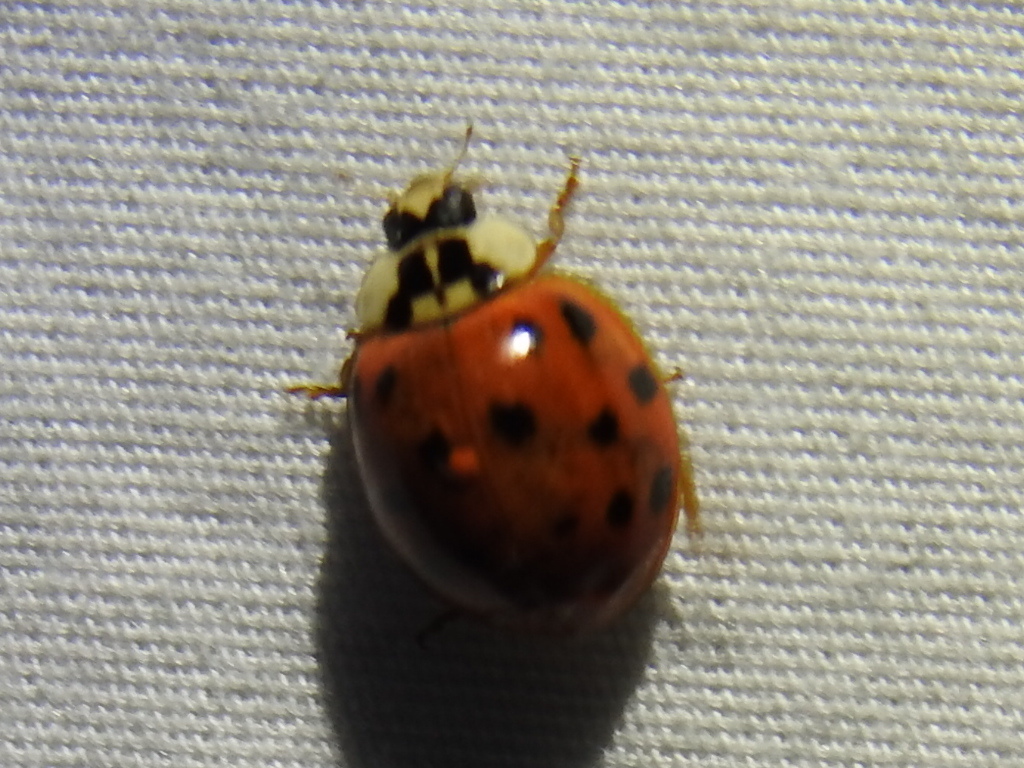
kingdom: Animalia
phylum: Arthropoda
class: Insecta
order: Coleoptera
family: Coccinellidae
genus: Harmonia
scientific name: Harmonia axyridis
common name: Harlequin ladybird
